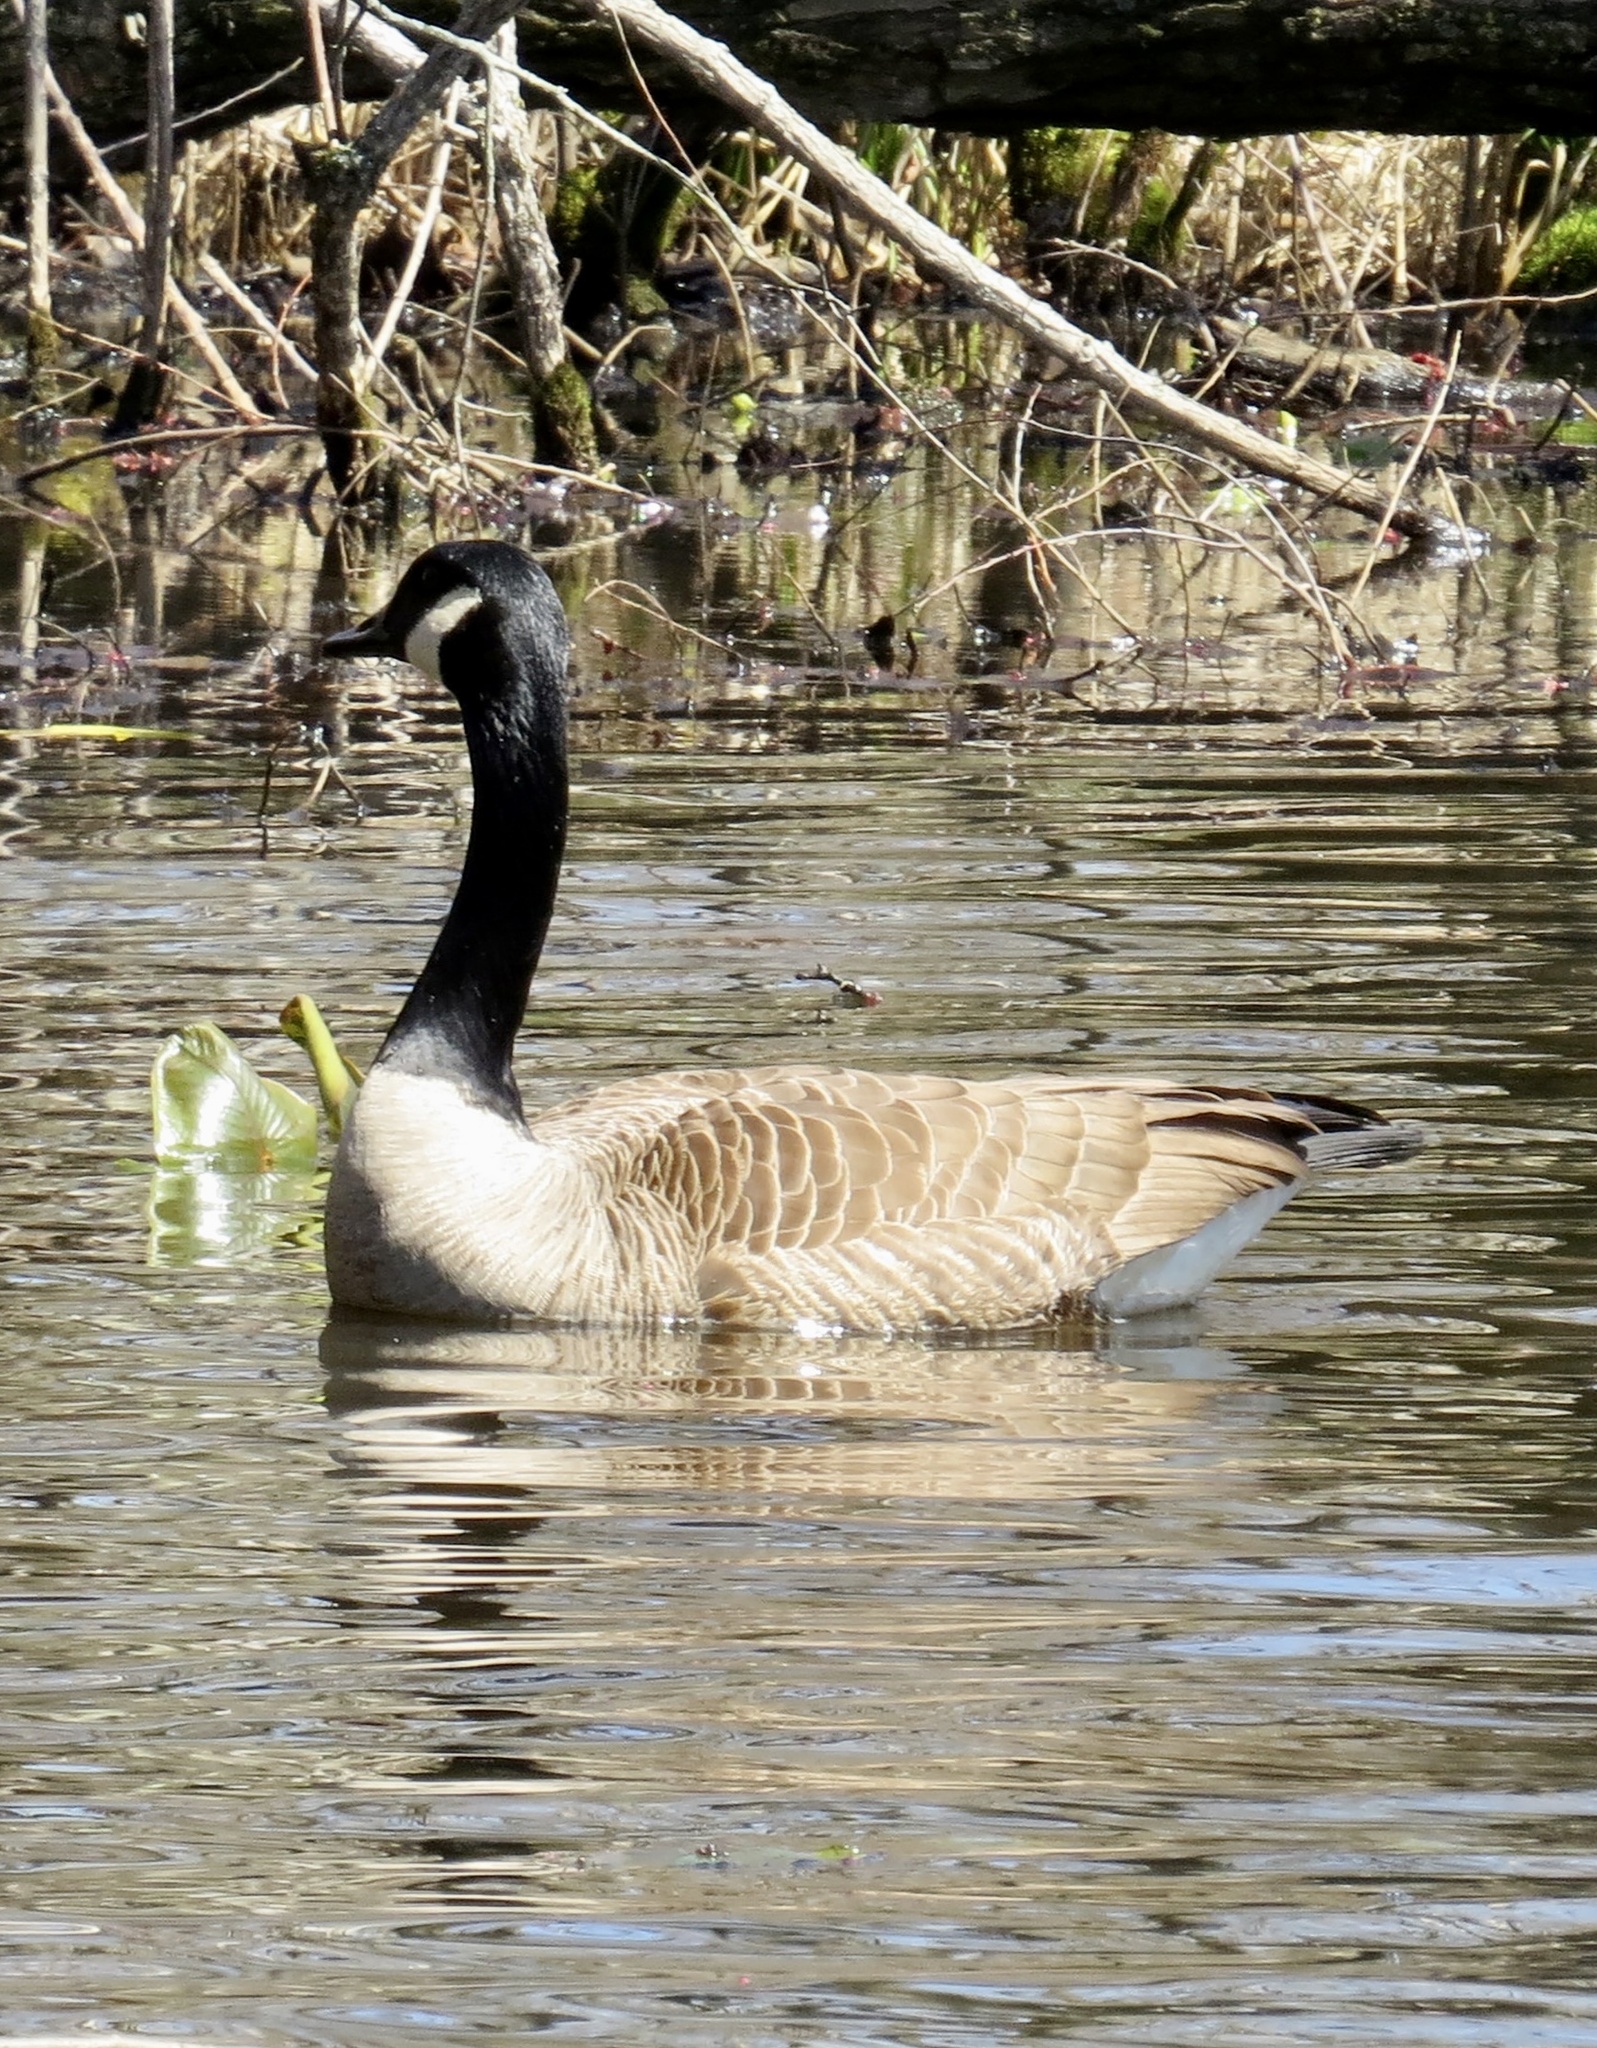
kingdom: Animalia
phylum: Chordata
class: Aves
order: Anseriformes
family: Anatidae
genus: Branta
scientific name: Branta canadensis
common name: Canada goose
